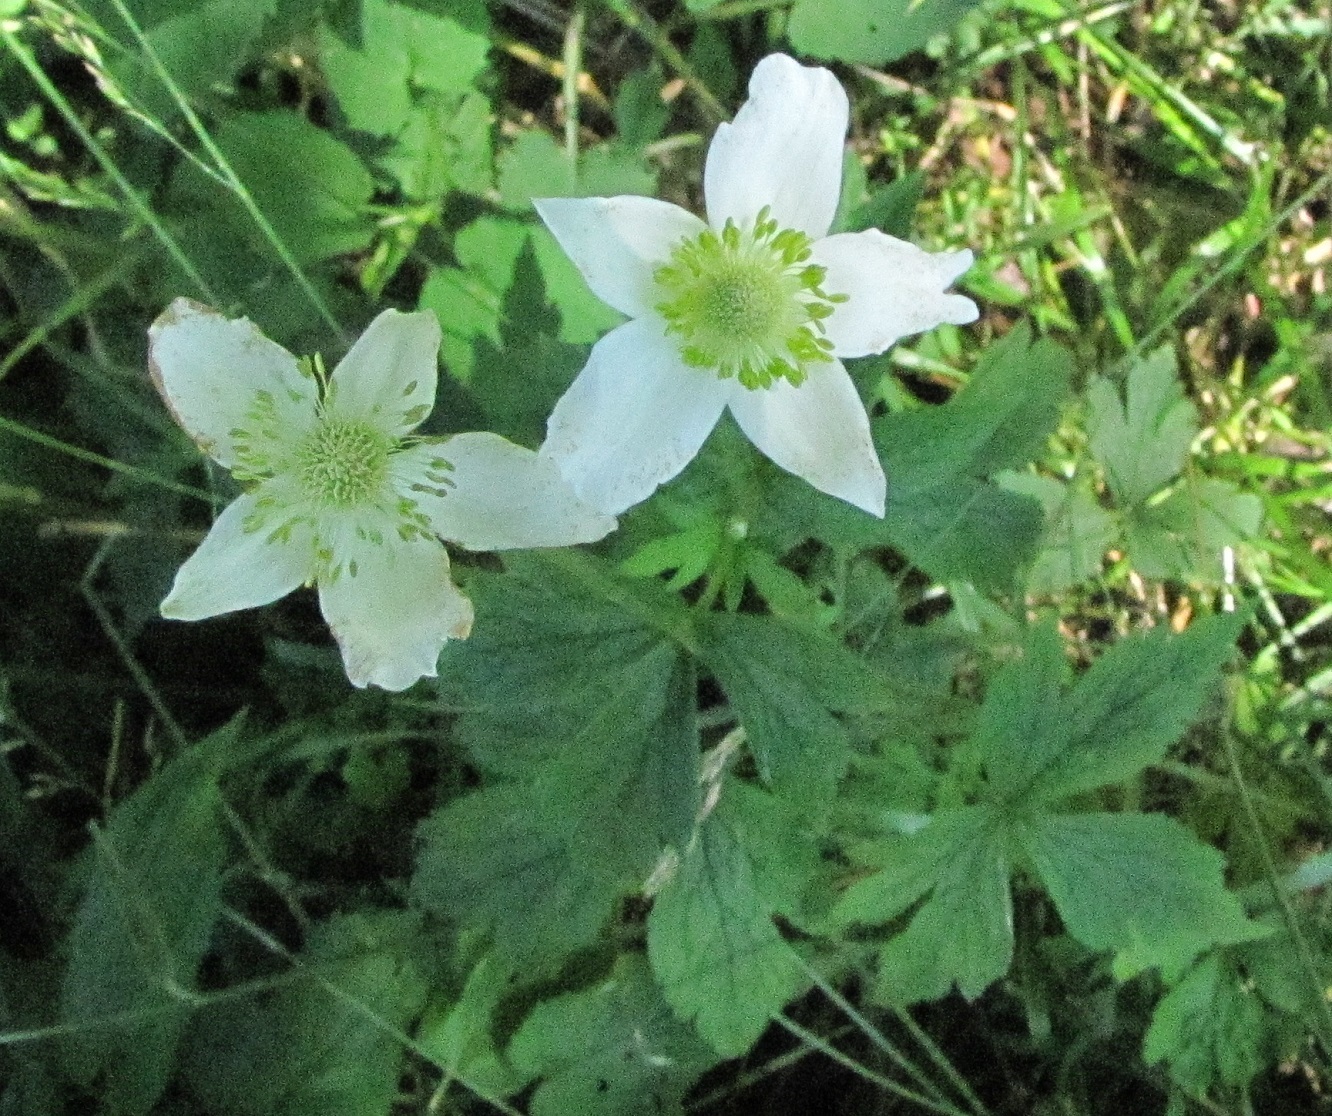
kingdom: Plantae
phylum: Tracheophyta
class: Magnoliopsida
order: Ranunculales
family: Ranunculaceae
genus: Anemone
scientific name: Anemone virginiana
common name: Tall anemone
